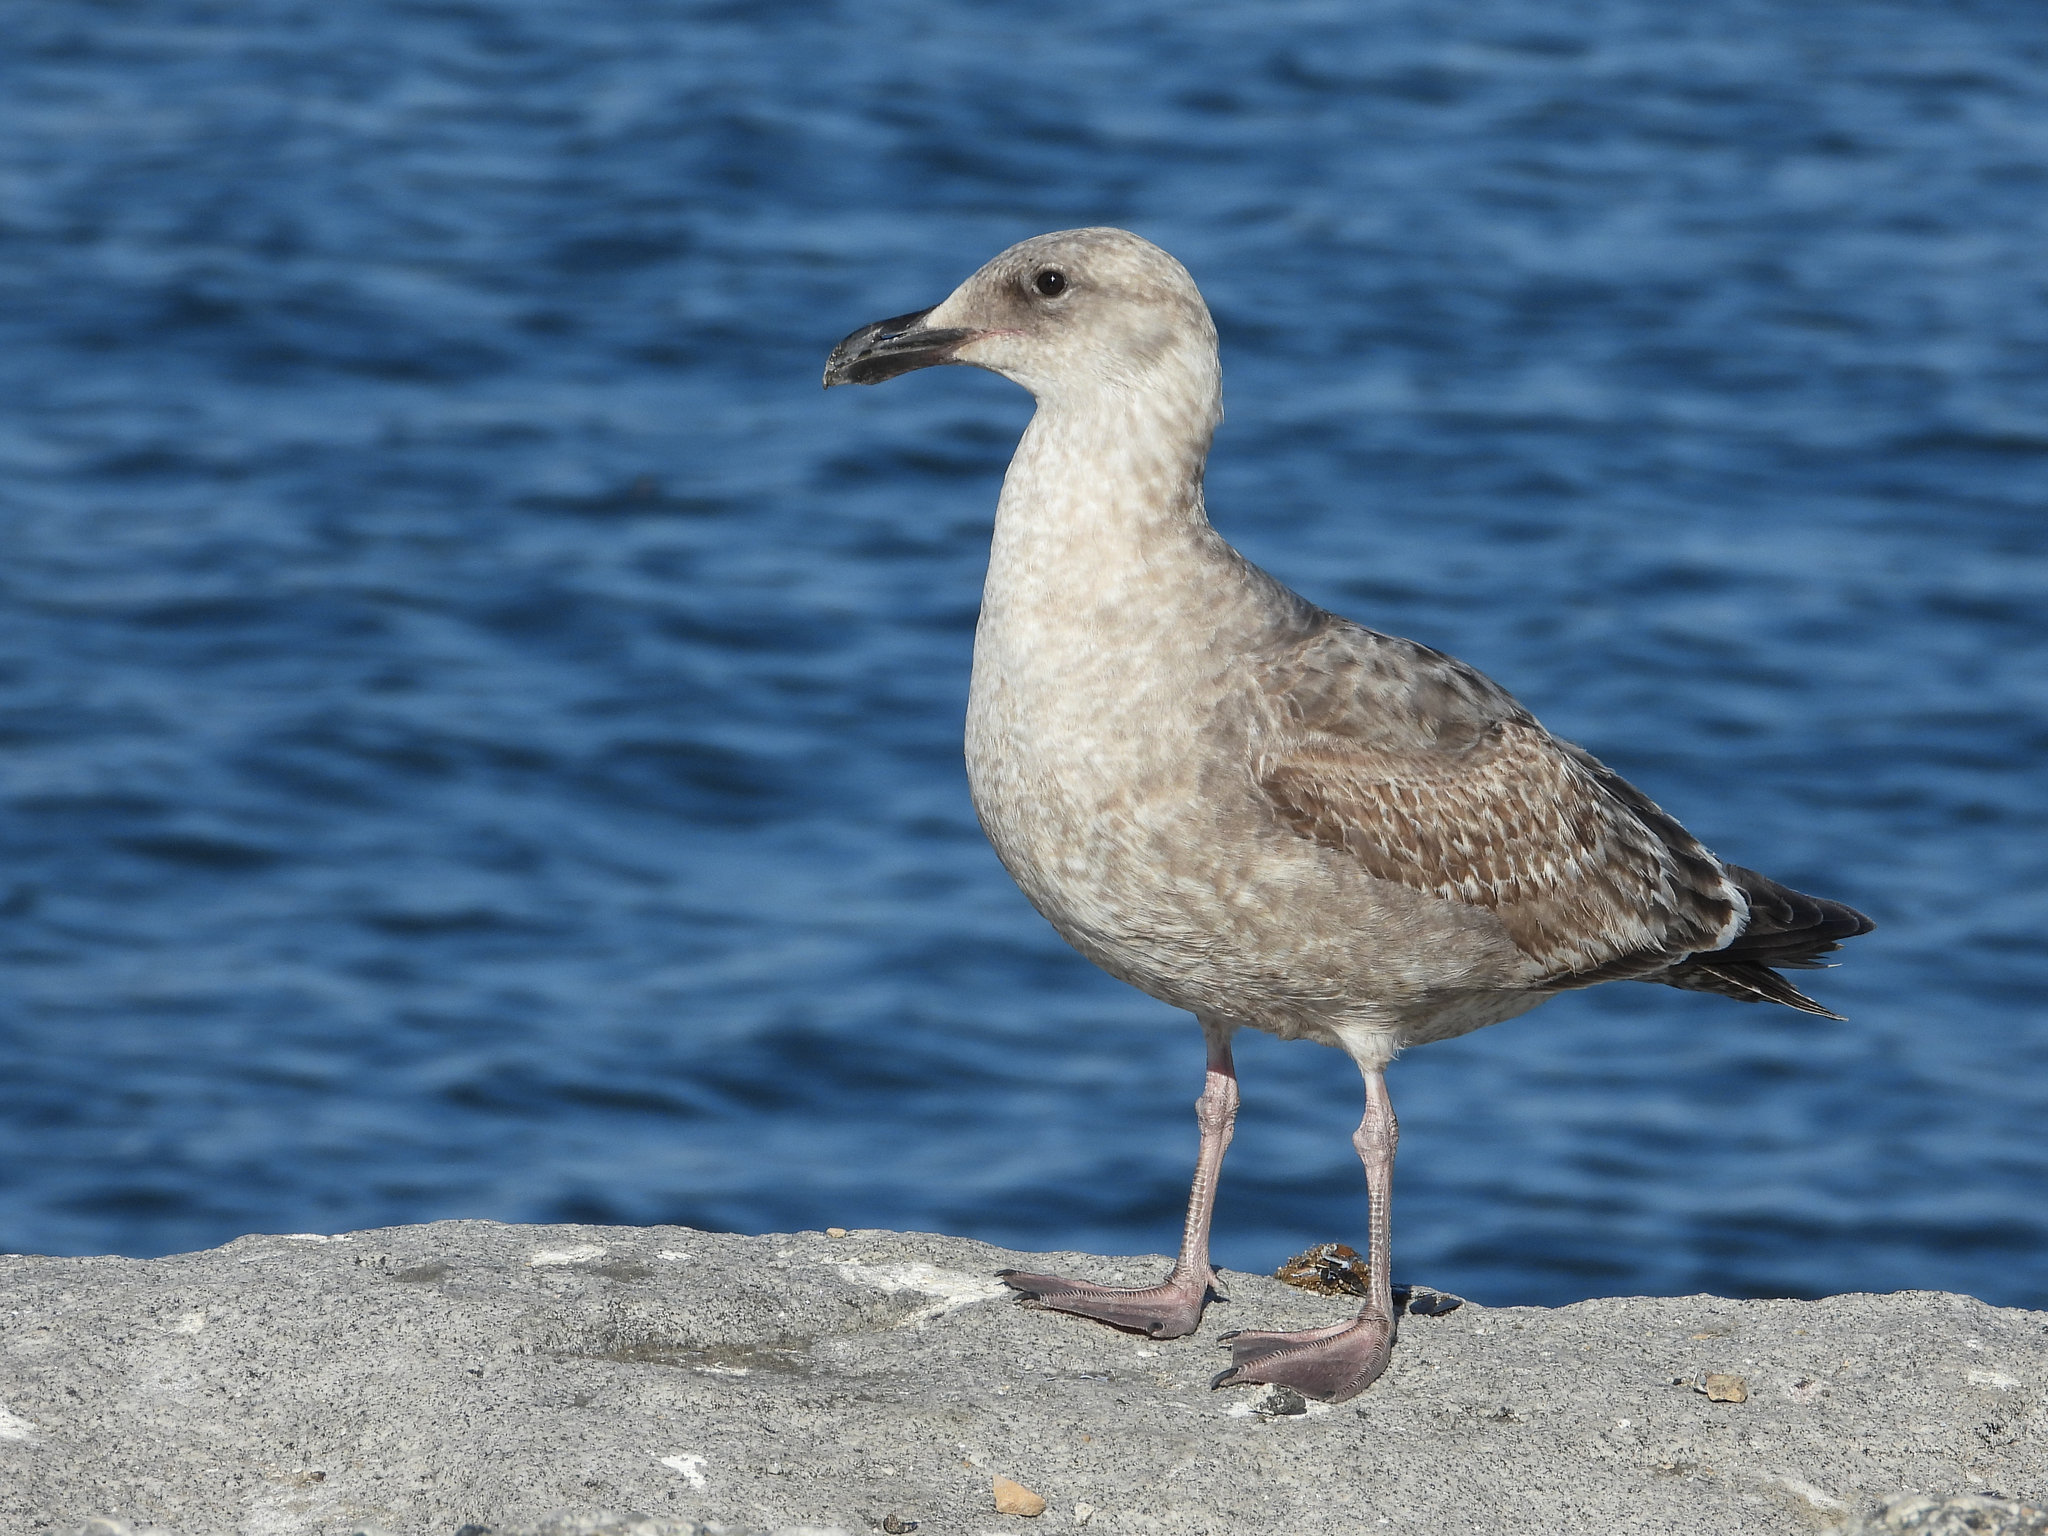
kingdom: Animalia
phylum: Chordata
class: Aves
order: Charadriiformes
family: Laridae
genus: Larus
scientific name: Larus occidentalis
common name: Western gull
